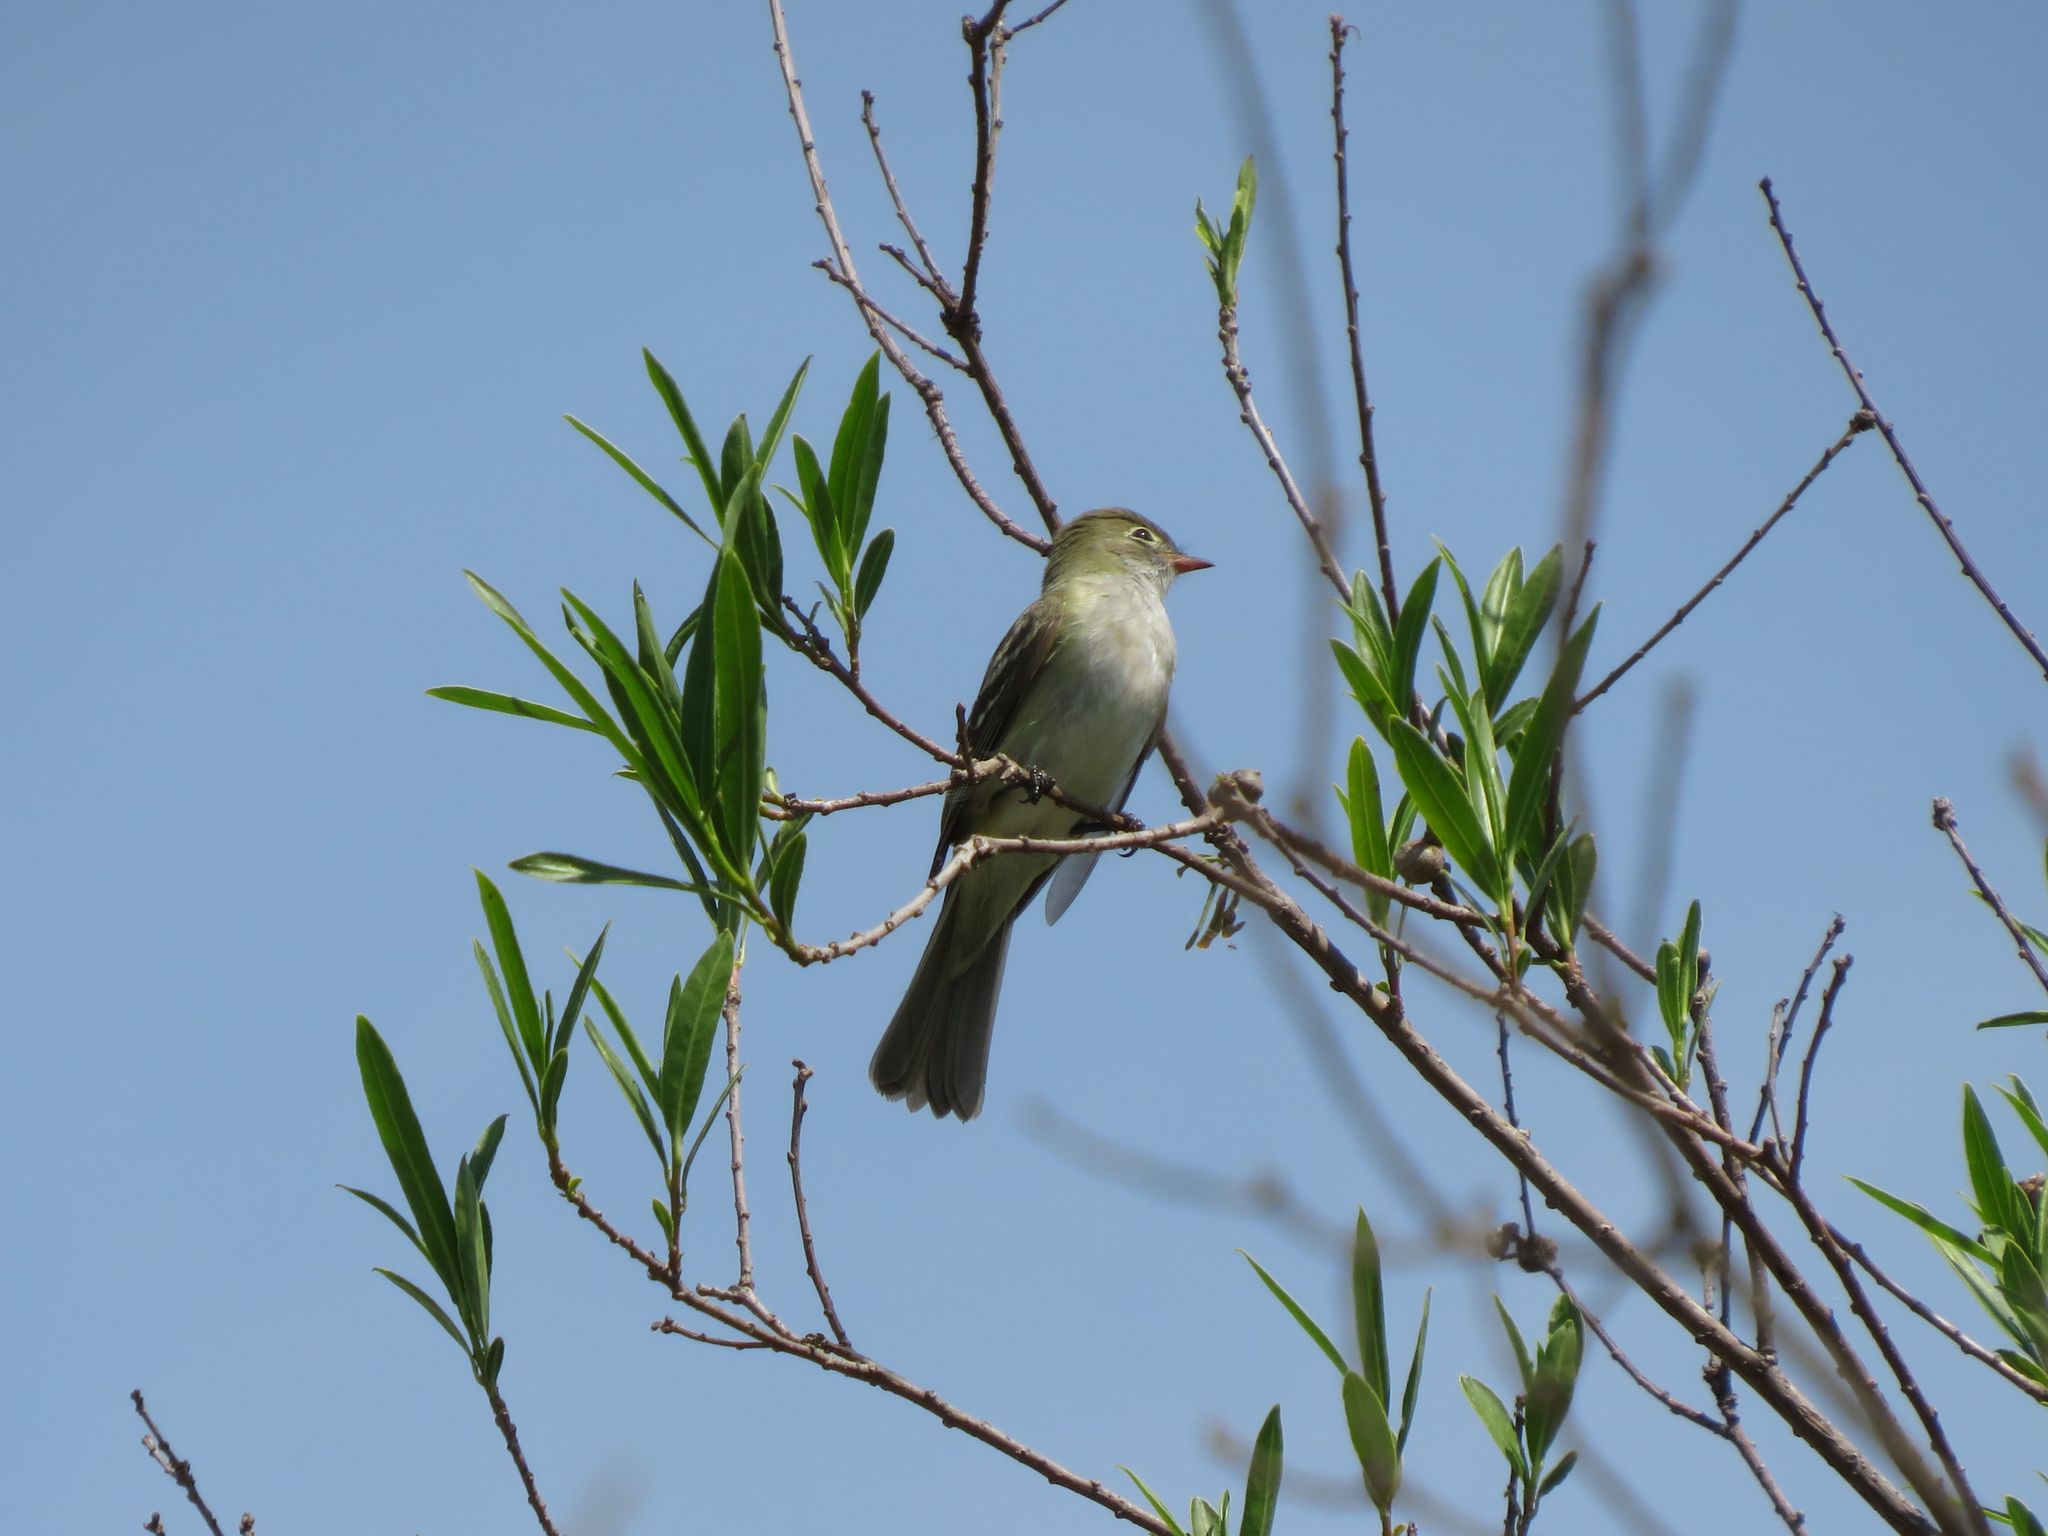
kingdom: Animalia
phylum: Chordata
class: Aves
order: Passeriformes
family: Tyrannidae
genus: Elaenia
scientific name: Elaenia parvirostris
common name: Small-billed elaenia
